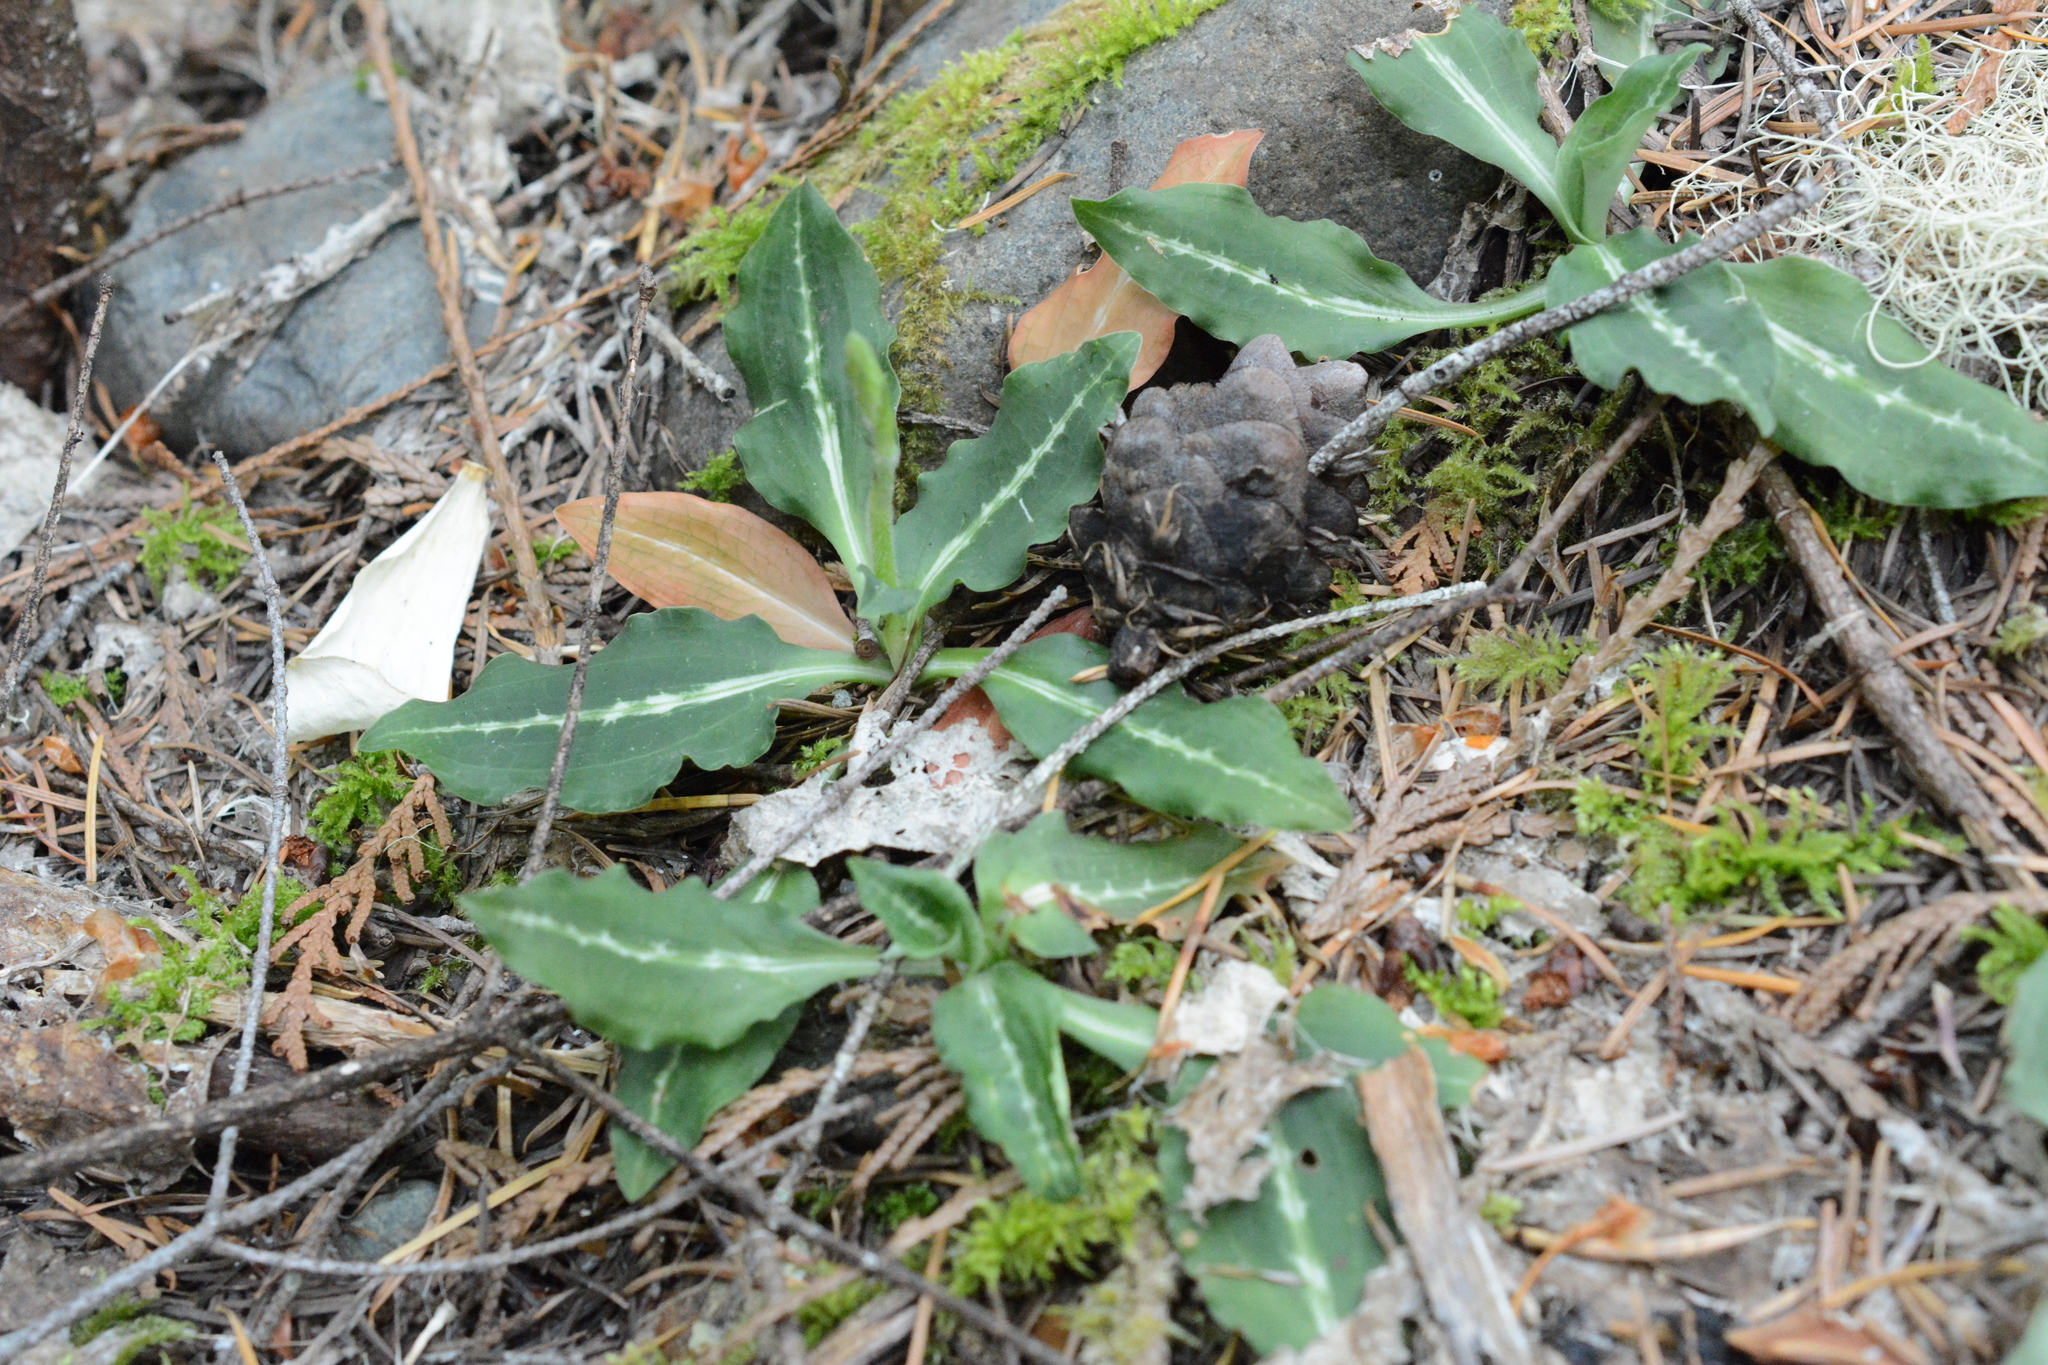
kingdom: Plantae
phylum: Tracheophyta
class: Liliopsida
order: Asparagales
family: Orchidaceae
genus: Goodyera
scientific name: Goodyera oblongifolia
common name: Giant rattlesnake-plantain
